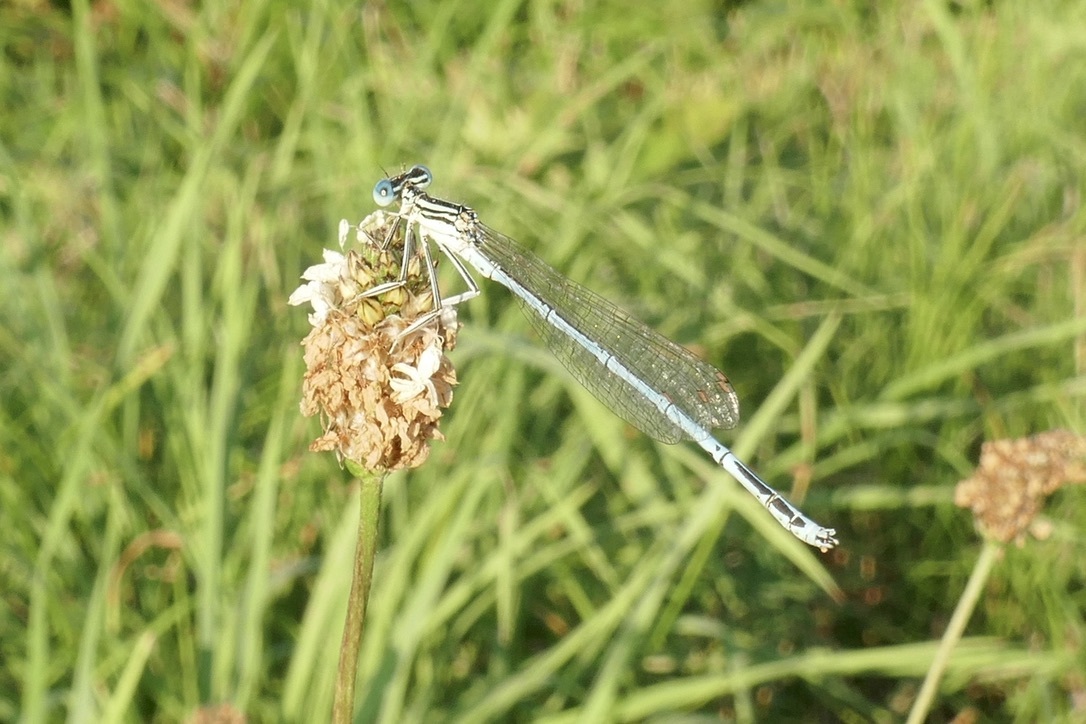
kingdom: Animalia
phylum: Arthropoda
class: Insecta
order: Odonata
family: Platycnemididae
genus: Platycnemis
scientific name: Platycnemis pennipes
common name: White-legged damselfly
